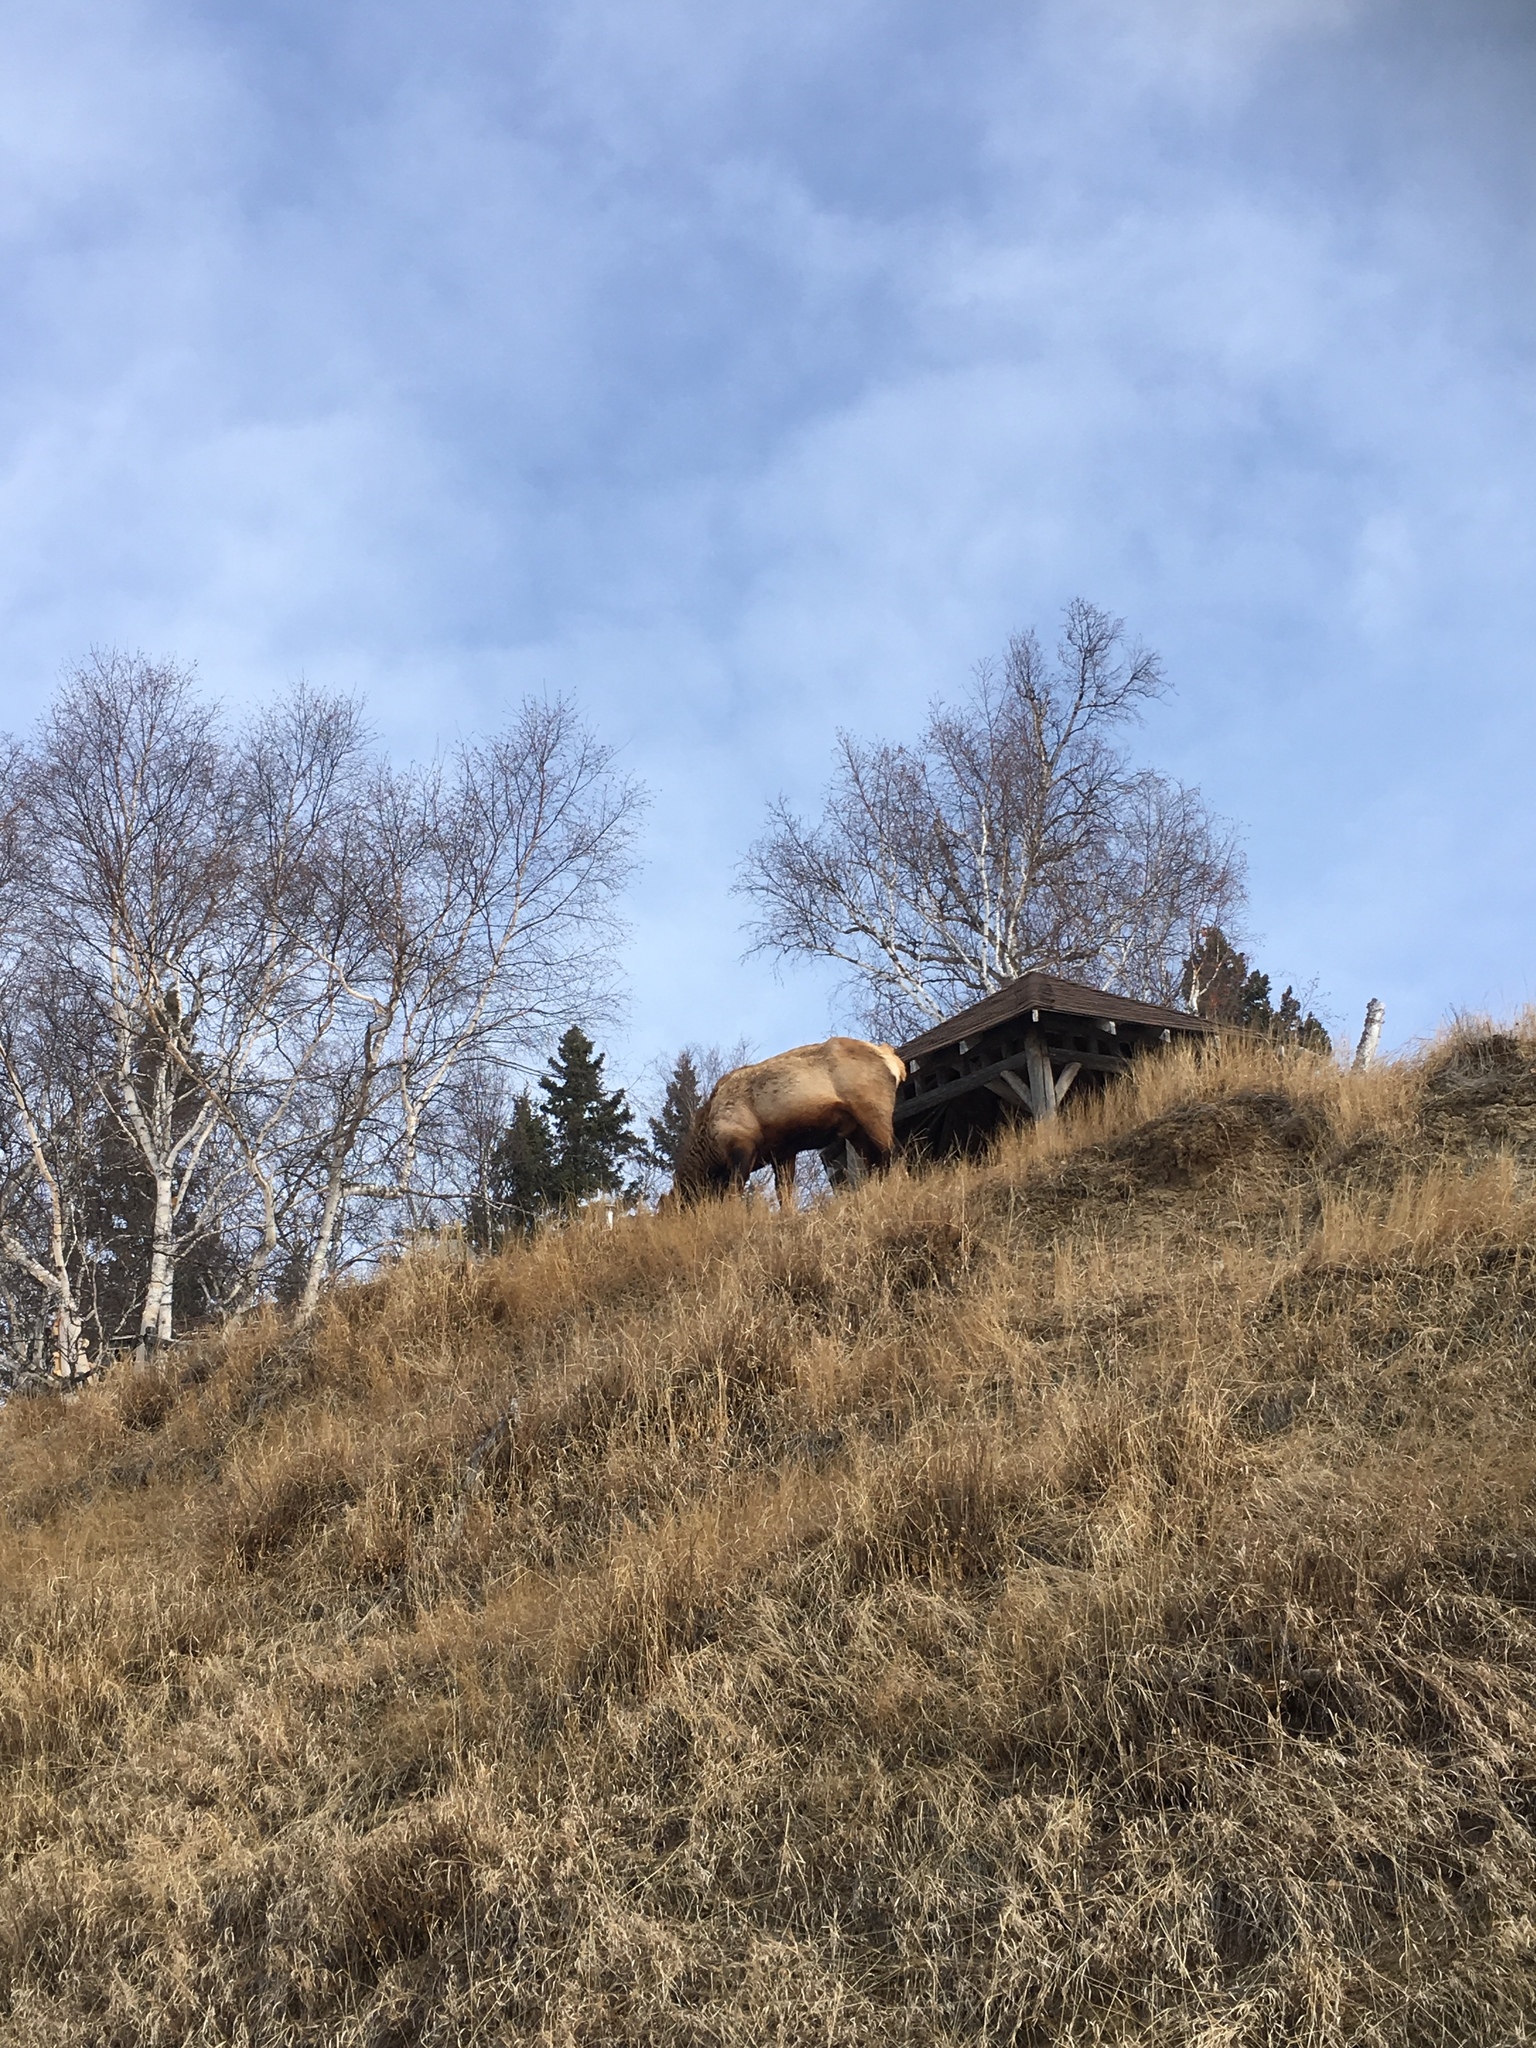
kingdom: Animalia
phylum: Chordata
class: Mammalia
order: Artiodactyla
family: Cervidae
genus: Cervus
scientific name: Cervus elaphus
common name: Red deer
